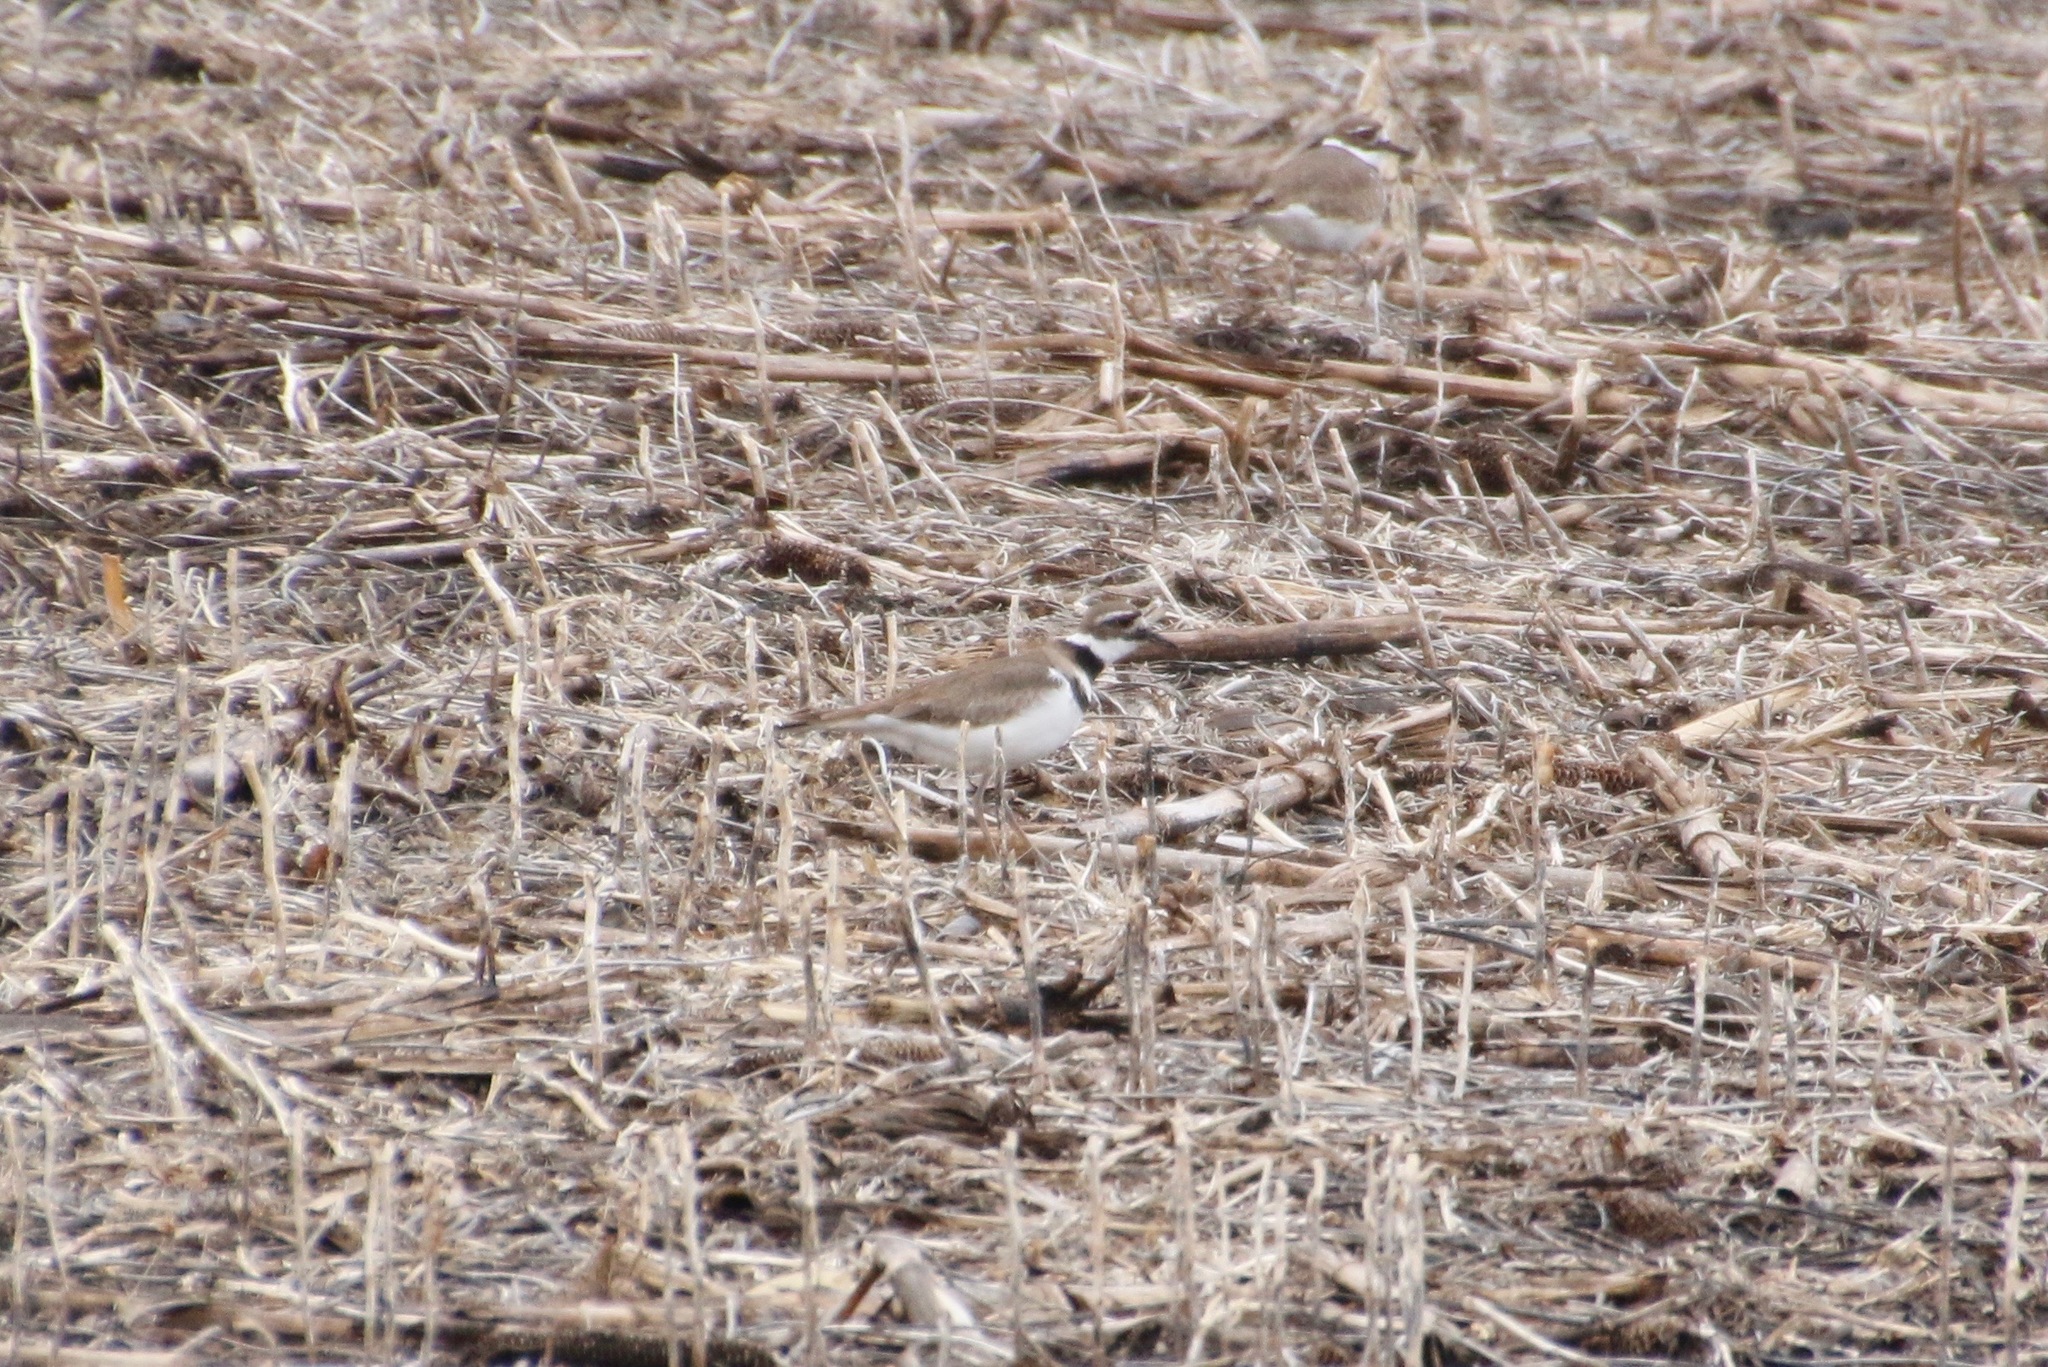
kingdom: Animalia
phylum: Chordata
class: Aves
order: Charadriiformes
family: Charadriidae
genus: Charadrius
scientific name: Charadrius vociferus
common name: Killdeer
